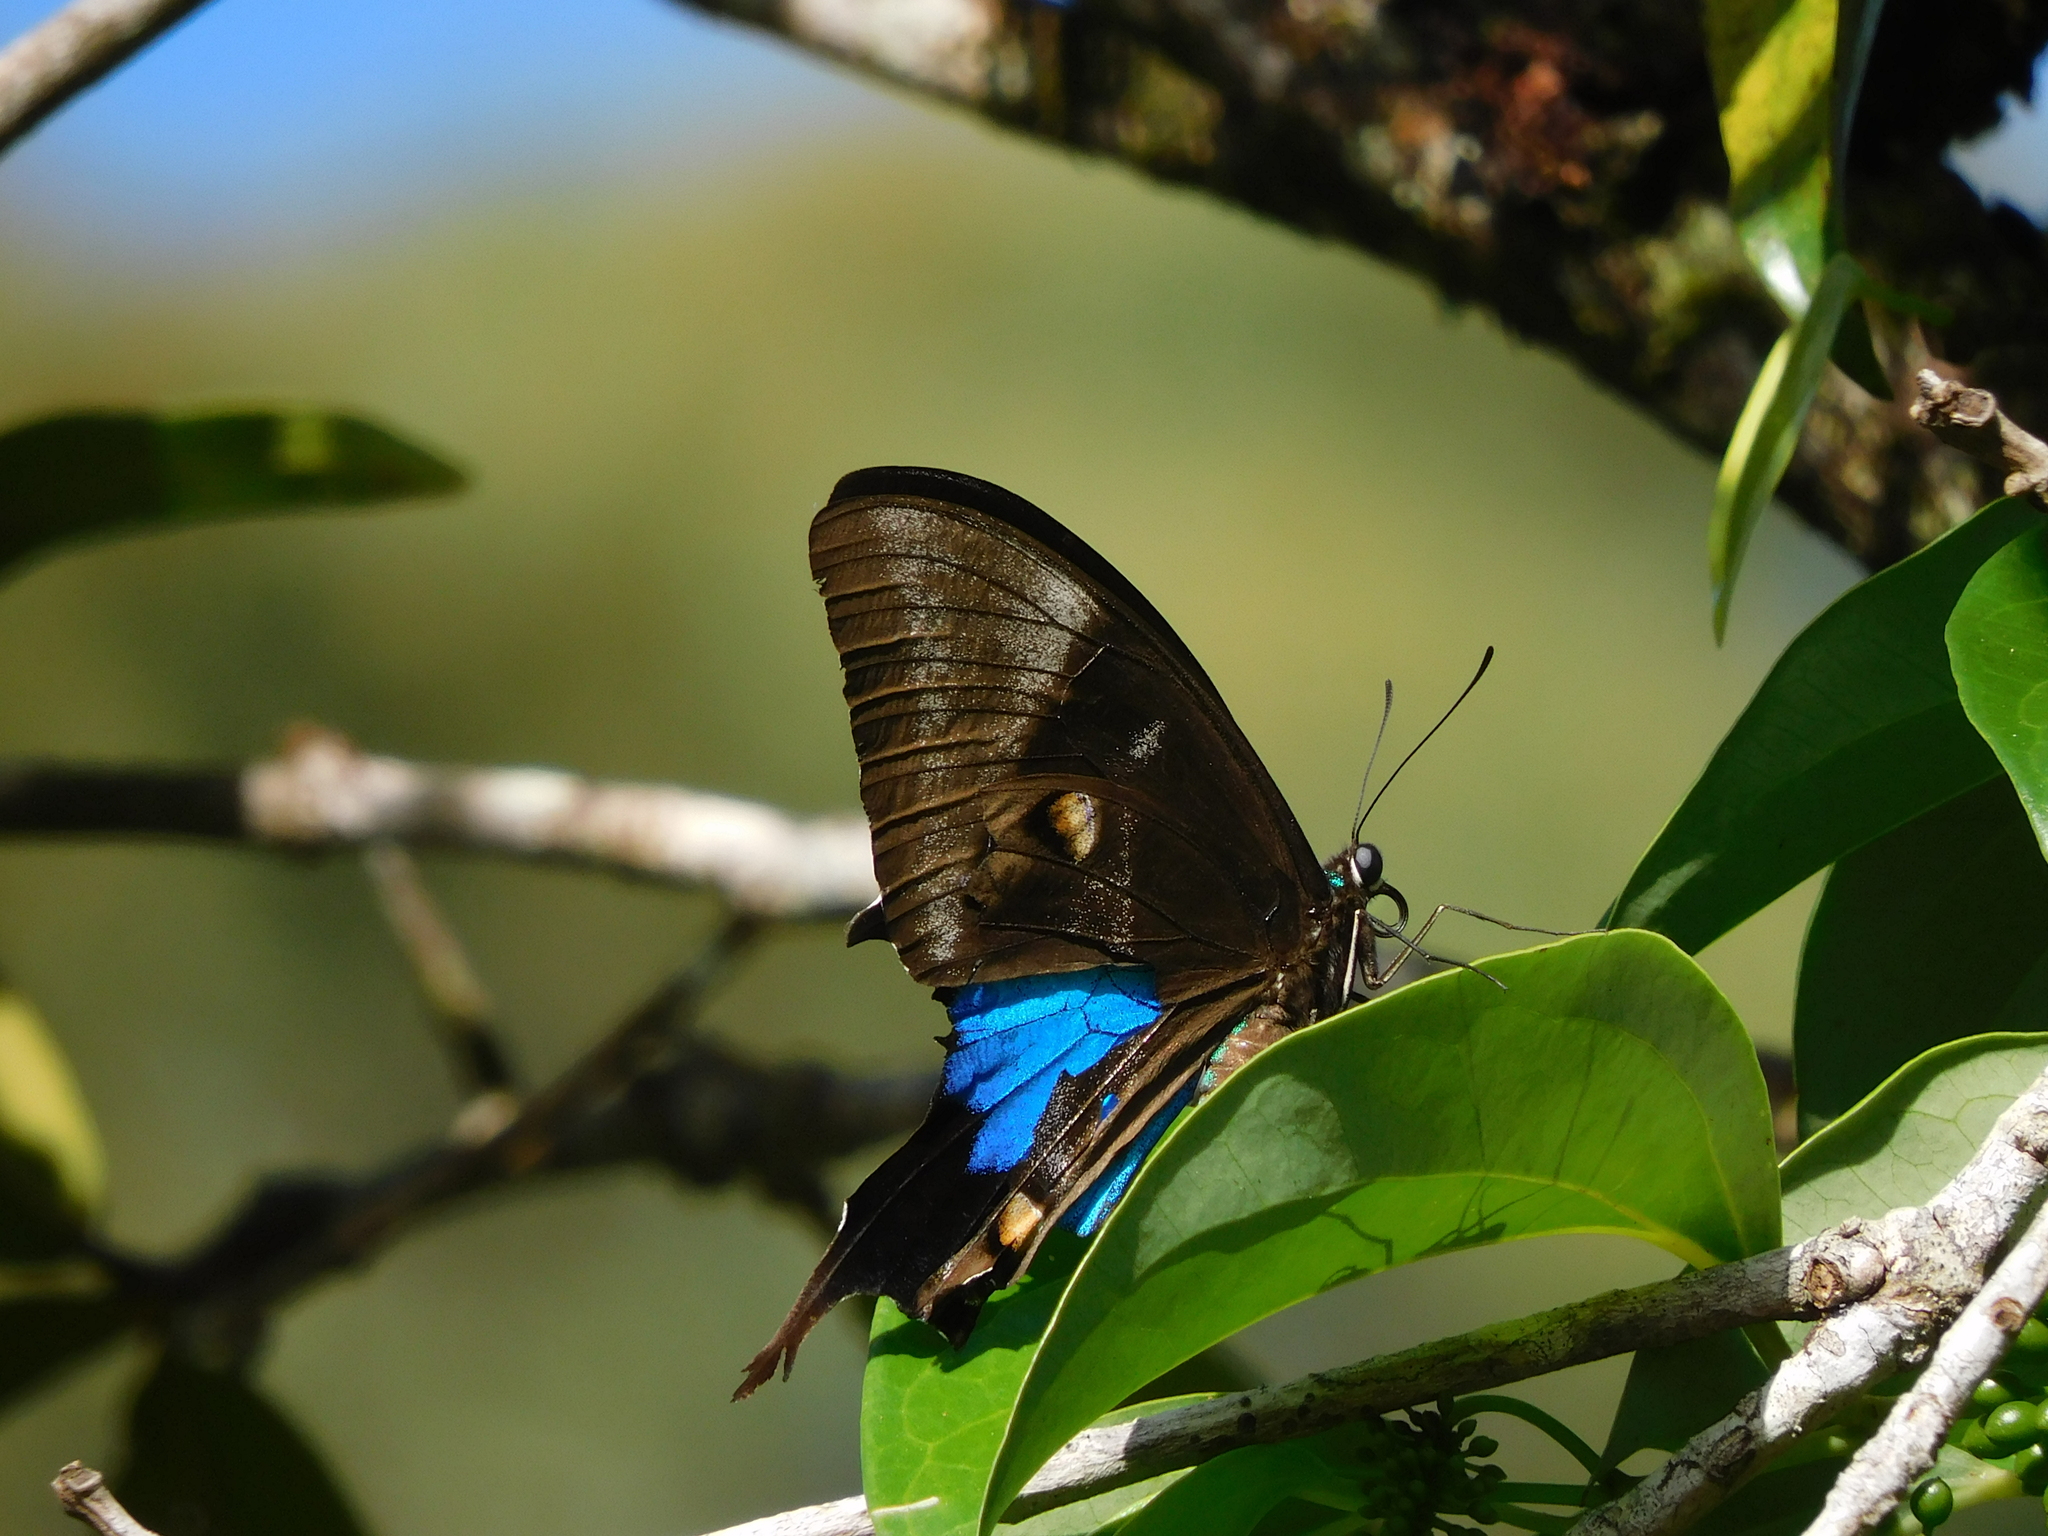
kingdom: Animalia
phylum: Arthropoda
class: Insecta
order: Lepidoptera
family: Papilionidae
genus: Papilio
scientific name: Papilio ulysses
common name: Blue emperor
